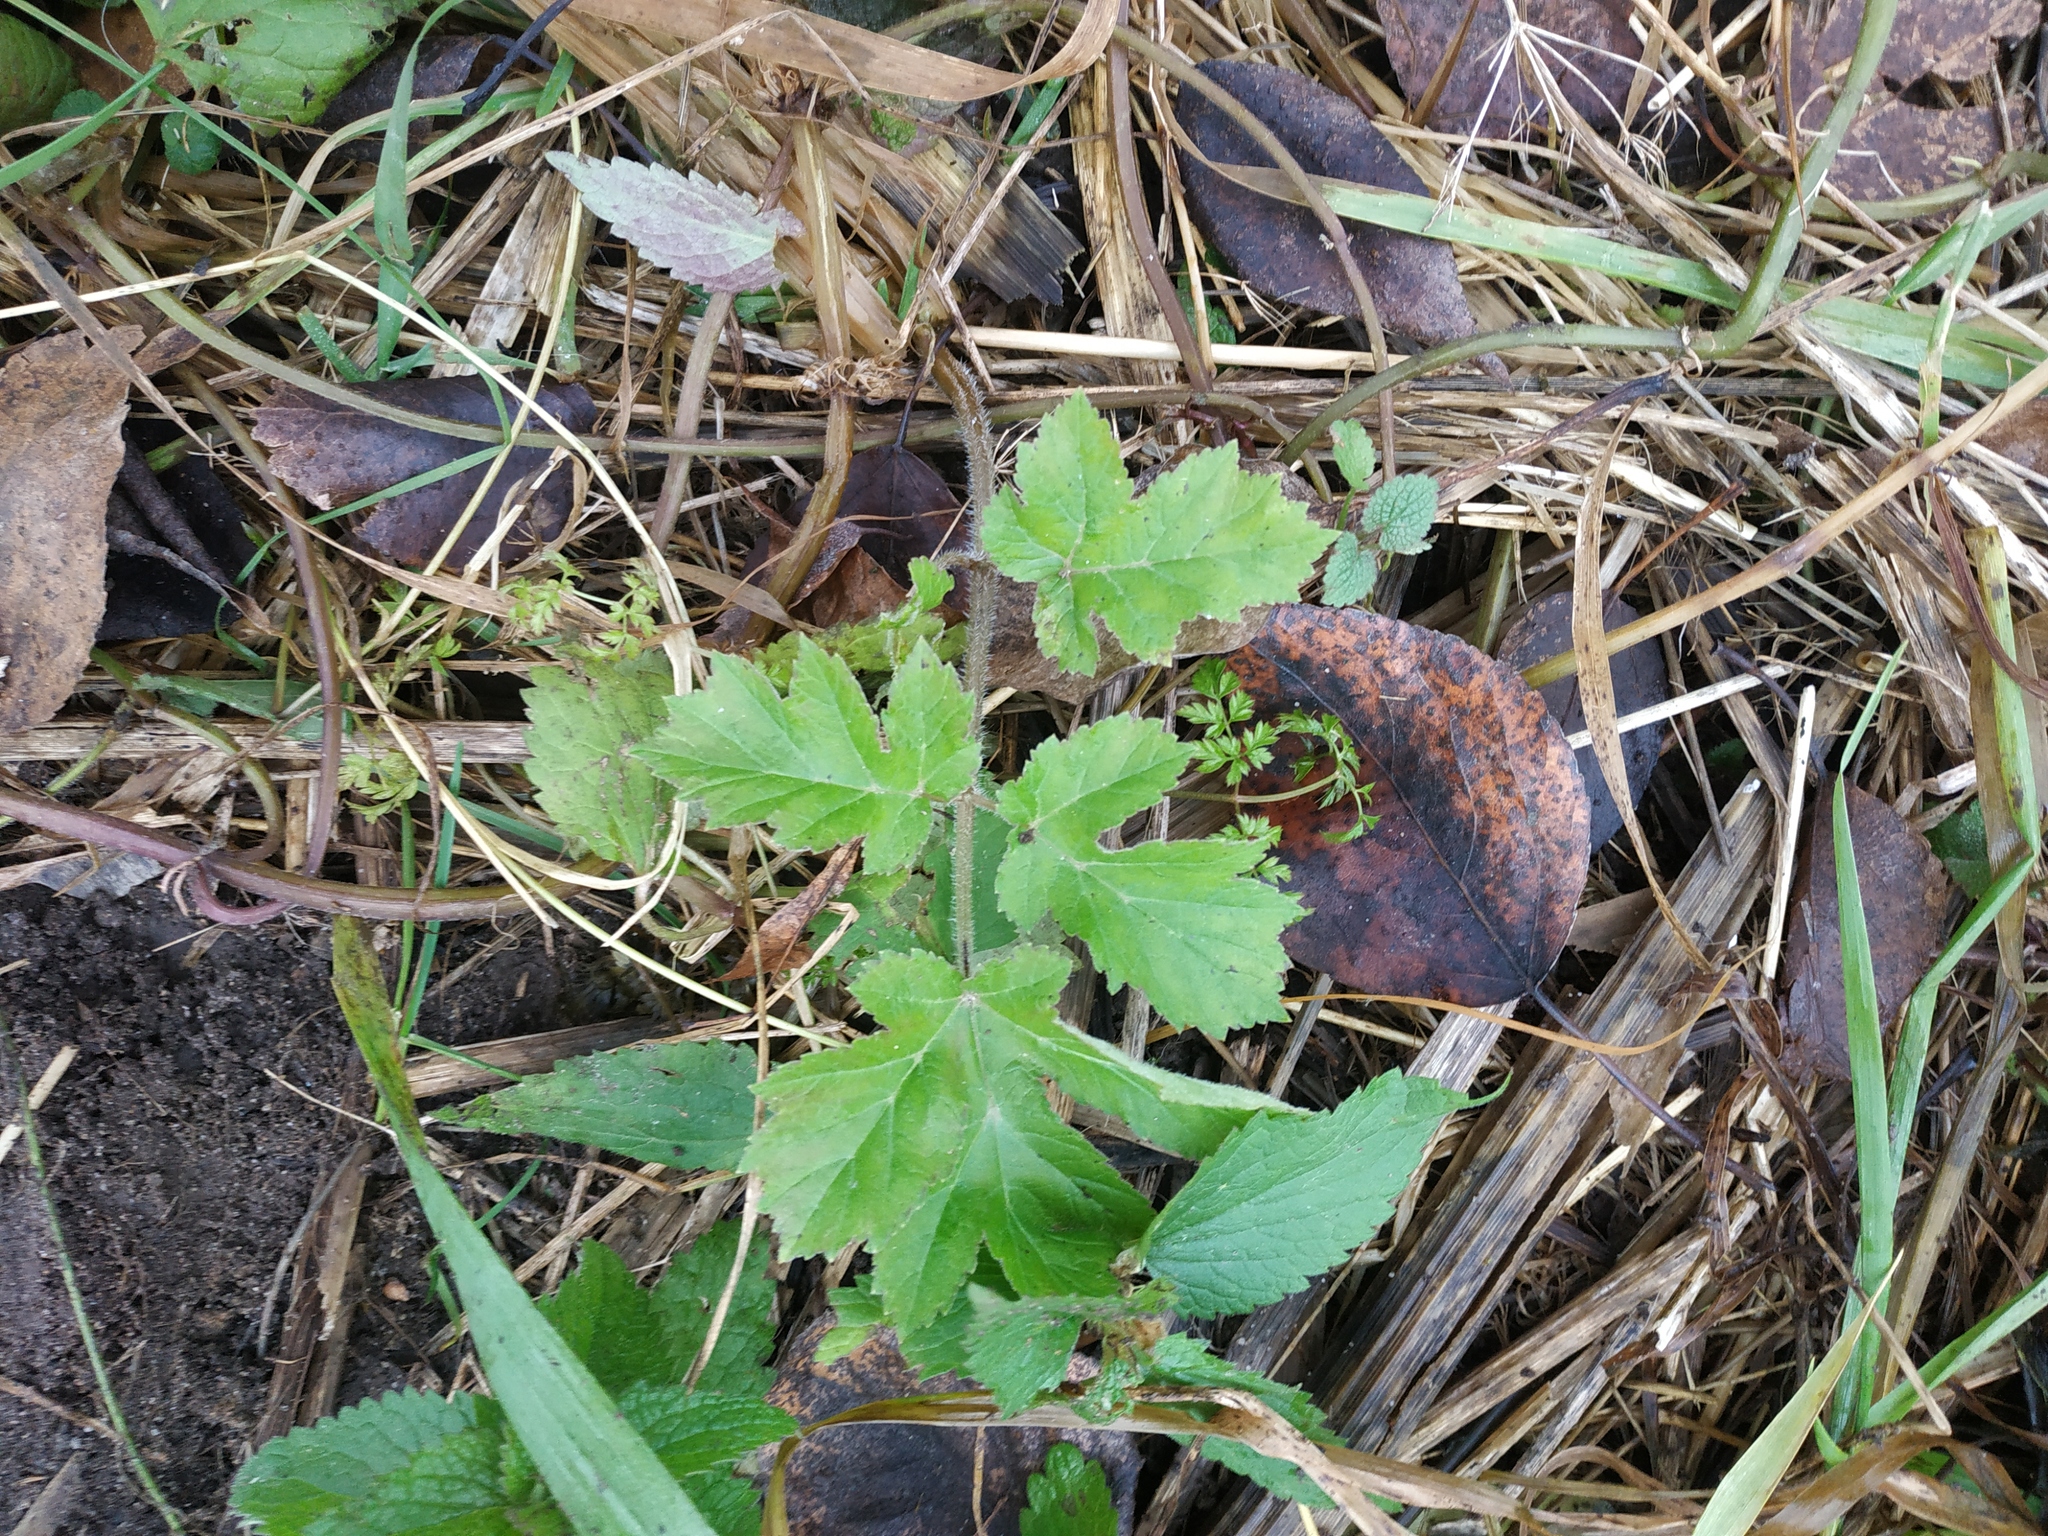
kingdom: Plantae
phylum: Tracheophyta
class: Magnoliopsida
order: Apiales
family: Apiaceae
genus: Heracleum
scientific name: Heracleum sphondylium
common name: Hogweed
